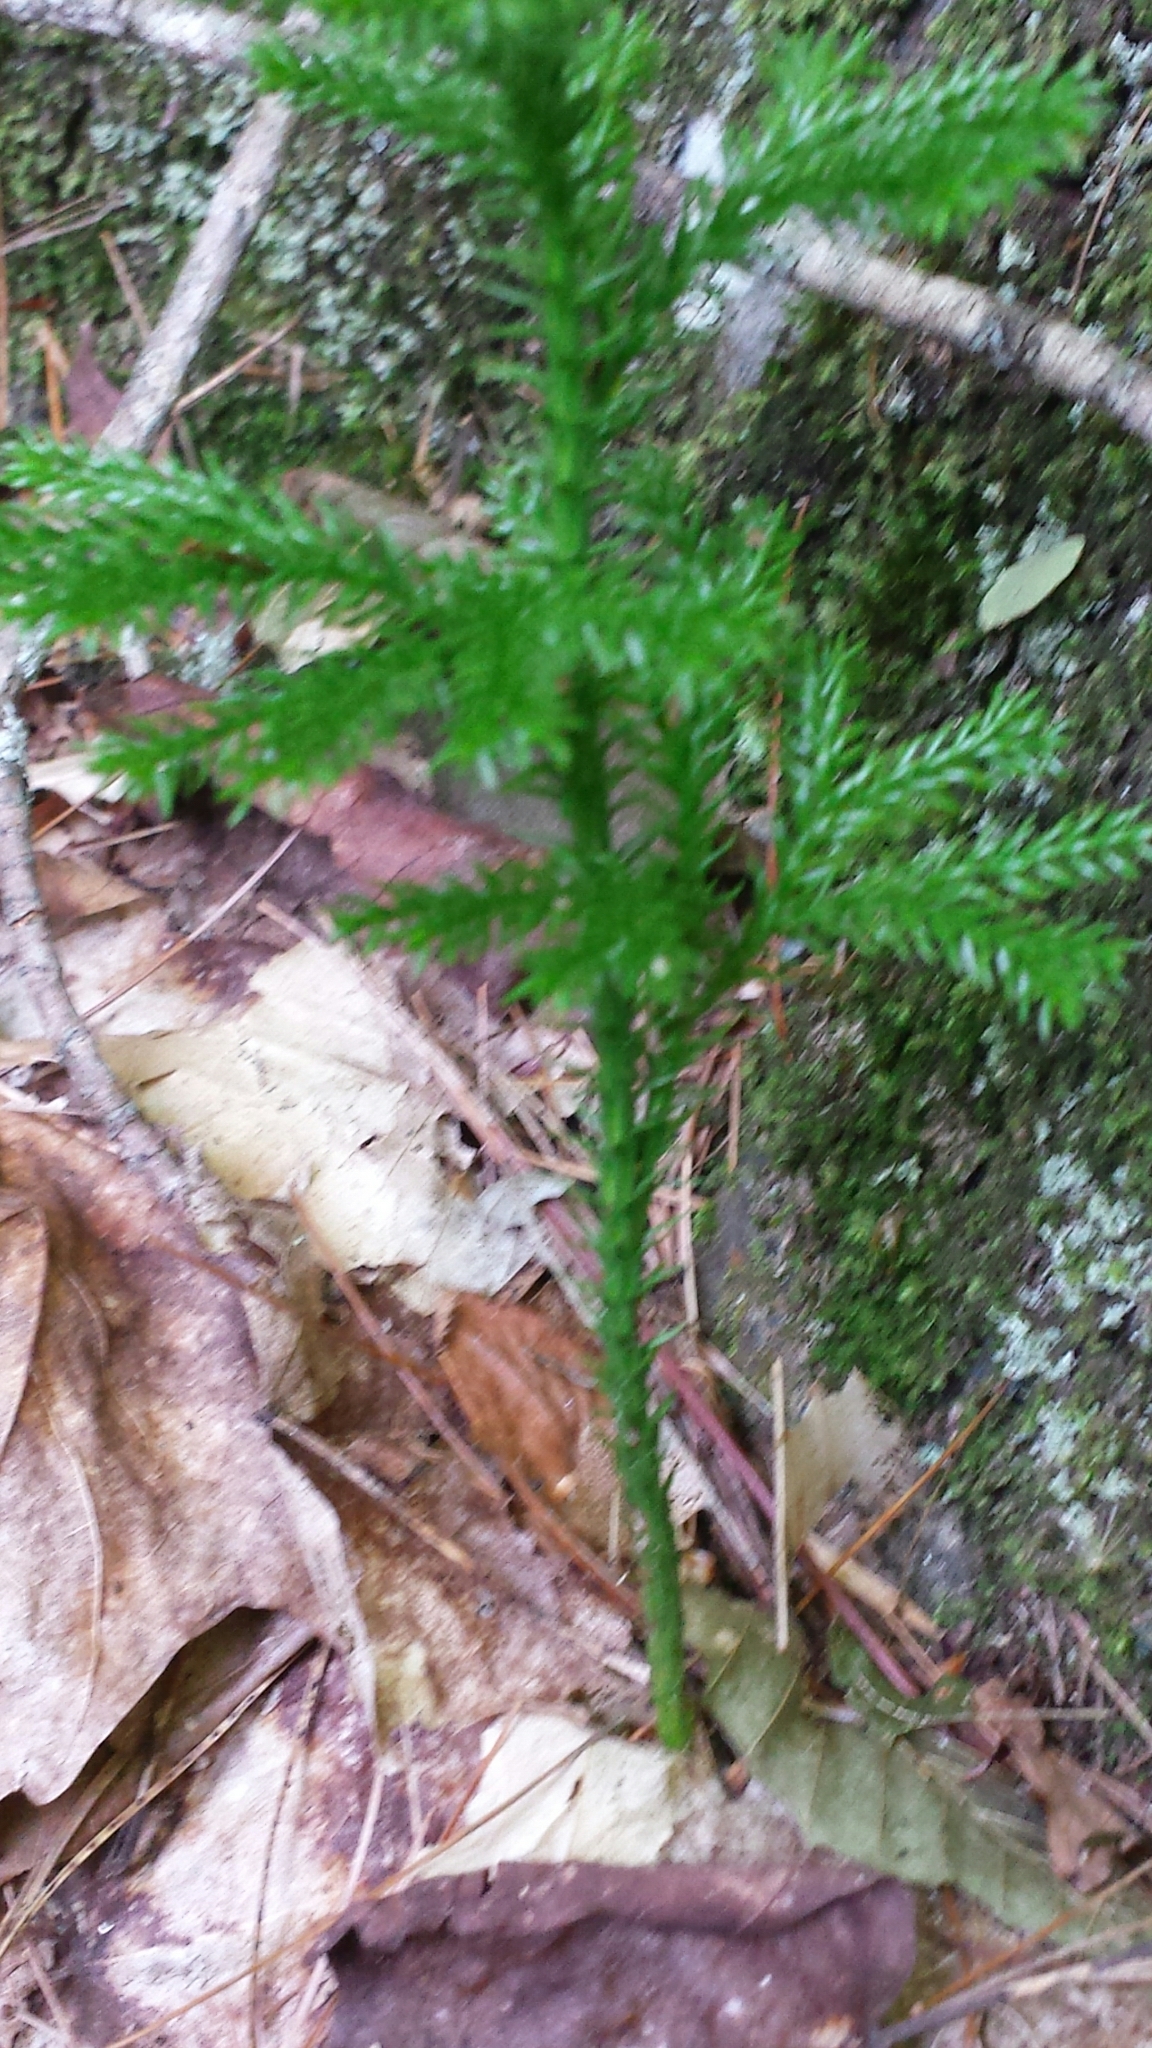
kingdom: Plantae
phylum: Tracheophyta
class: Lycopodiopsida
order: Lycopodiales
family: Lycopodiaceae
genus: Dendrolycopodium
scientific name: Dendrolycopodium dendroideum
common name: Northern tree-clubmoss
